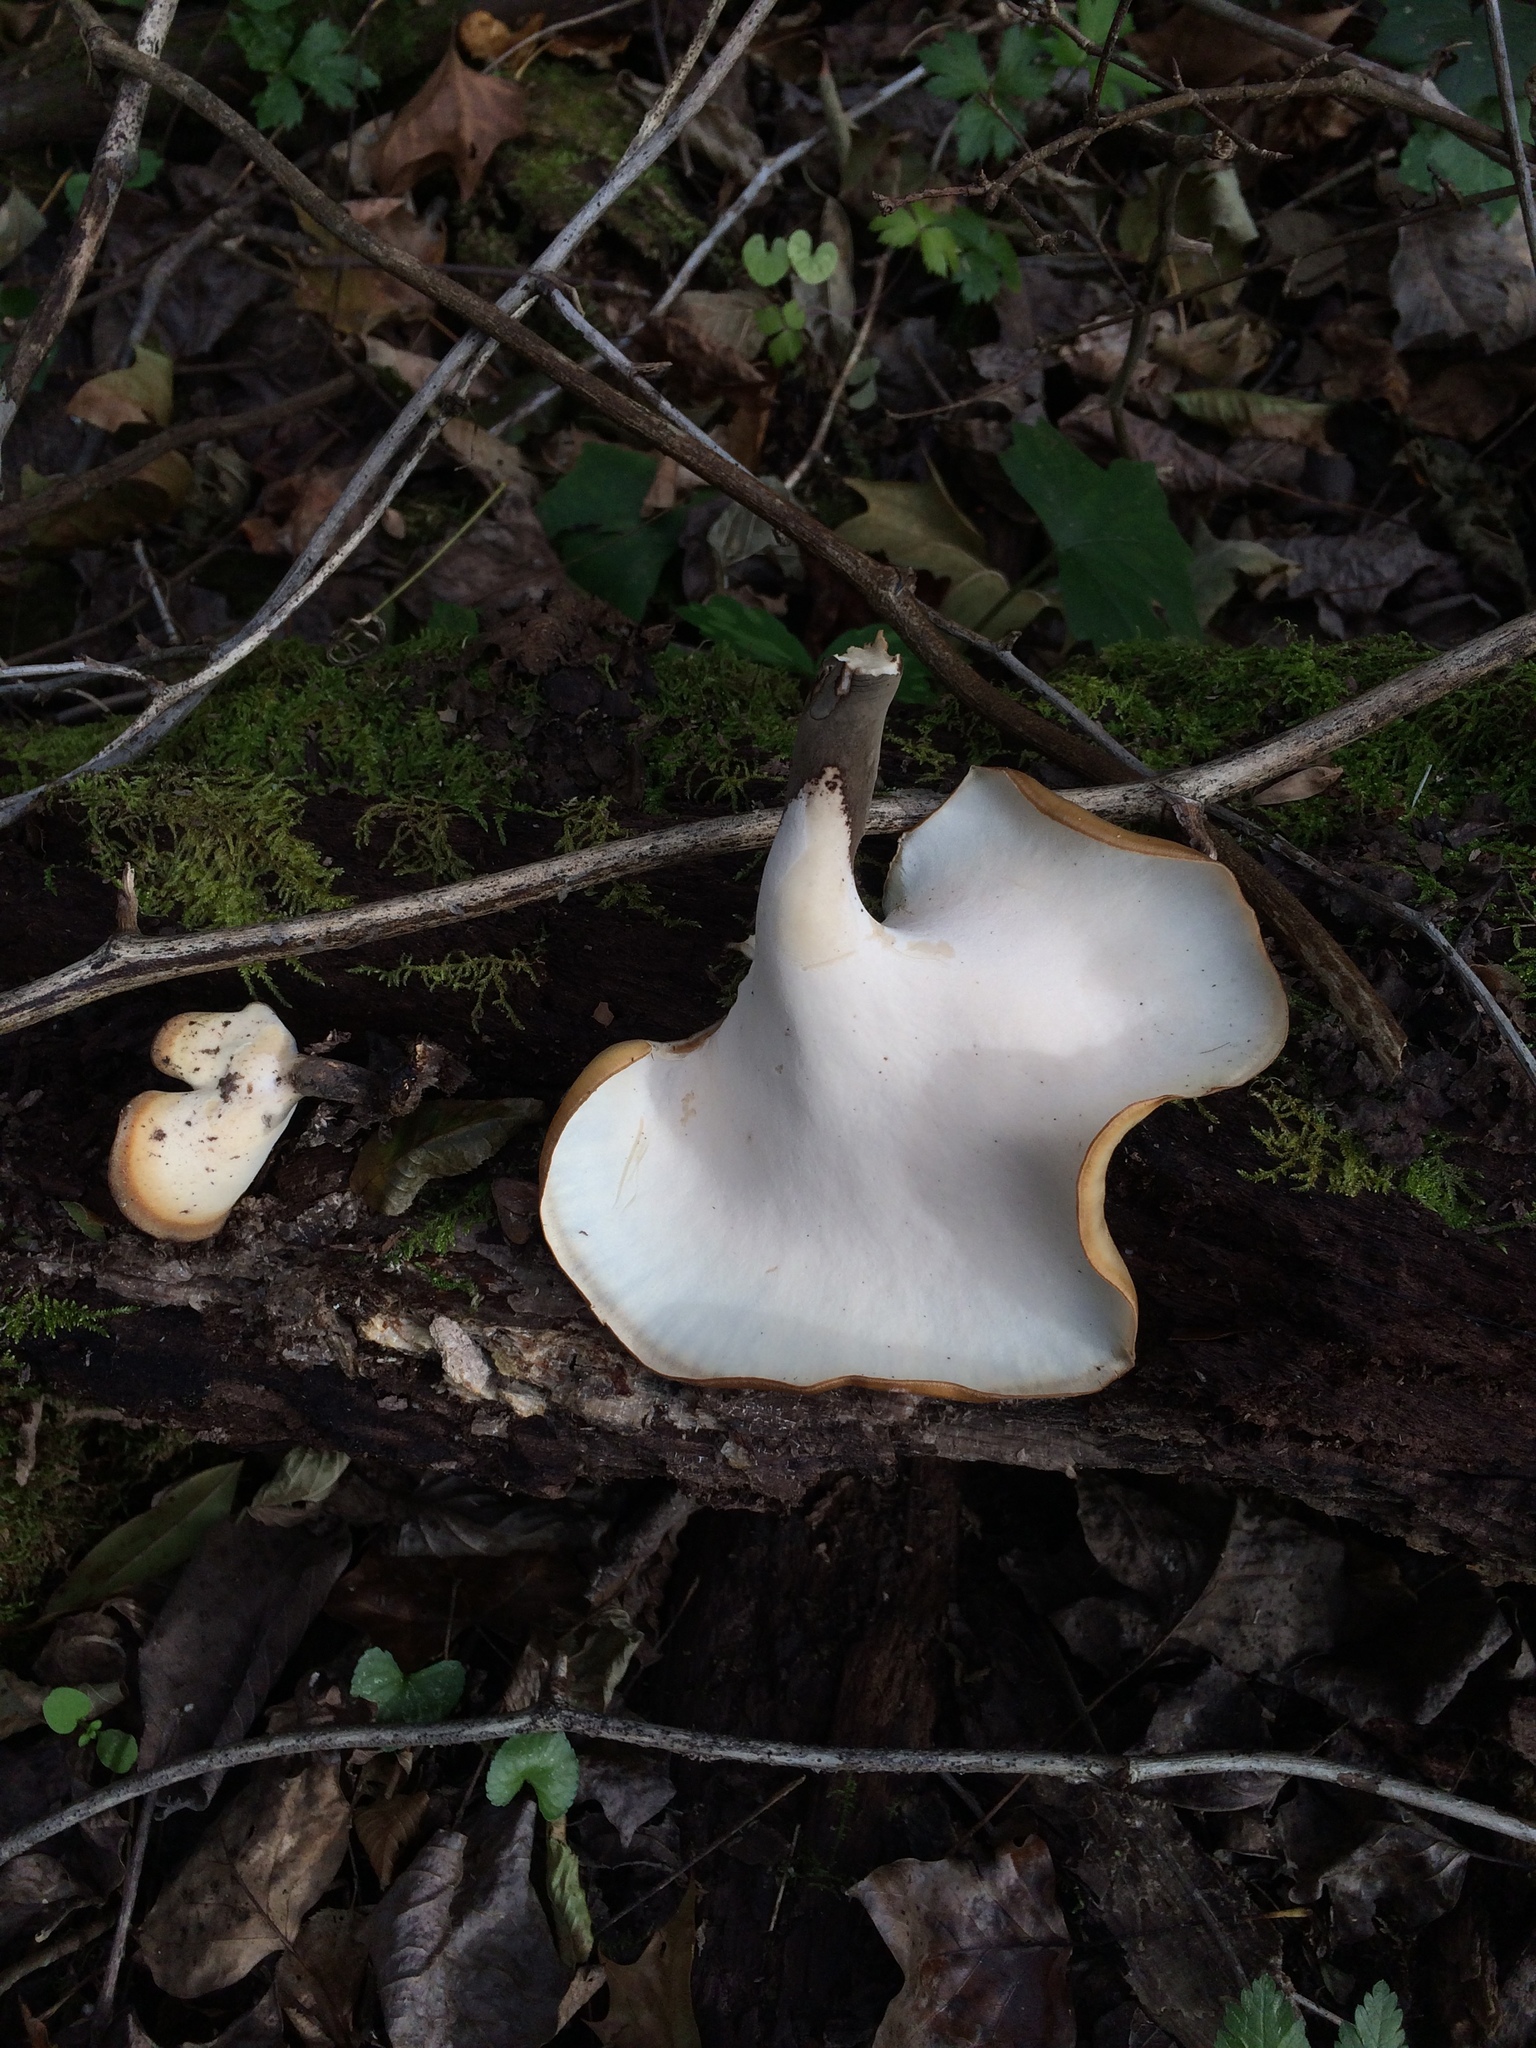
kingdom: Fungi
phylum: Basidiomycota
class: Agaricomycetes
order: Polyporales
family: Polyporaceae
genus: Picipes
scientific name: Picipes badius
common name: Bay polypore
